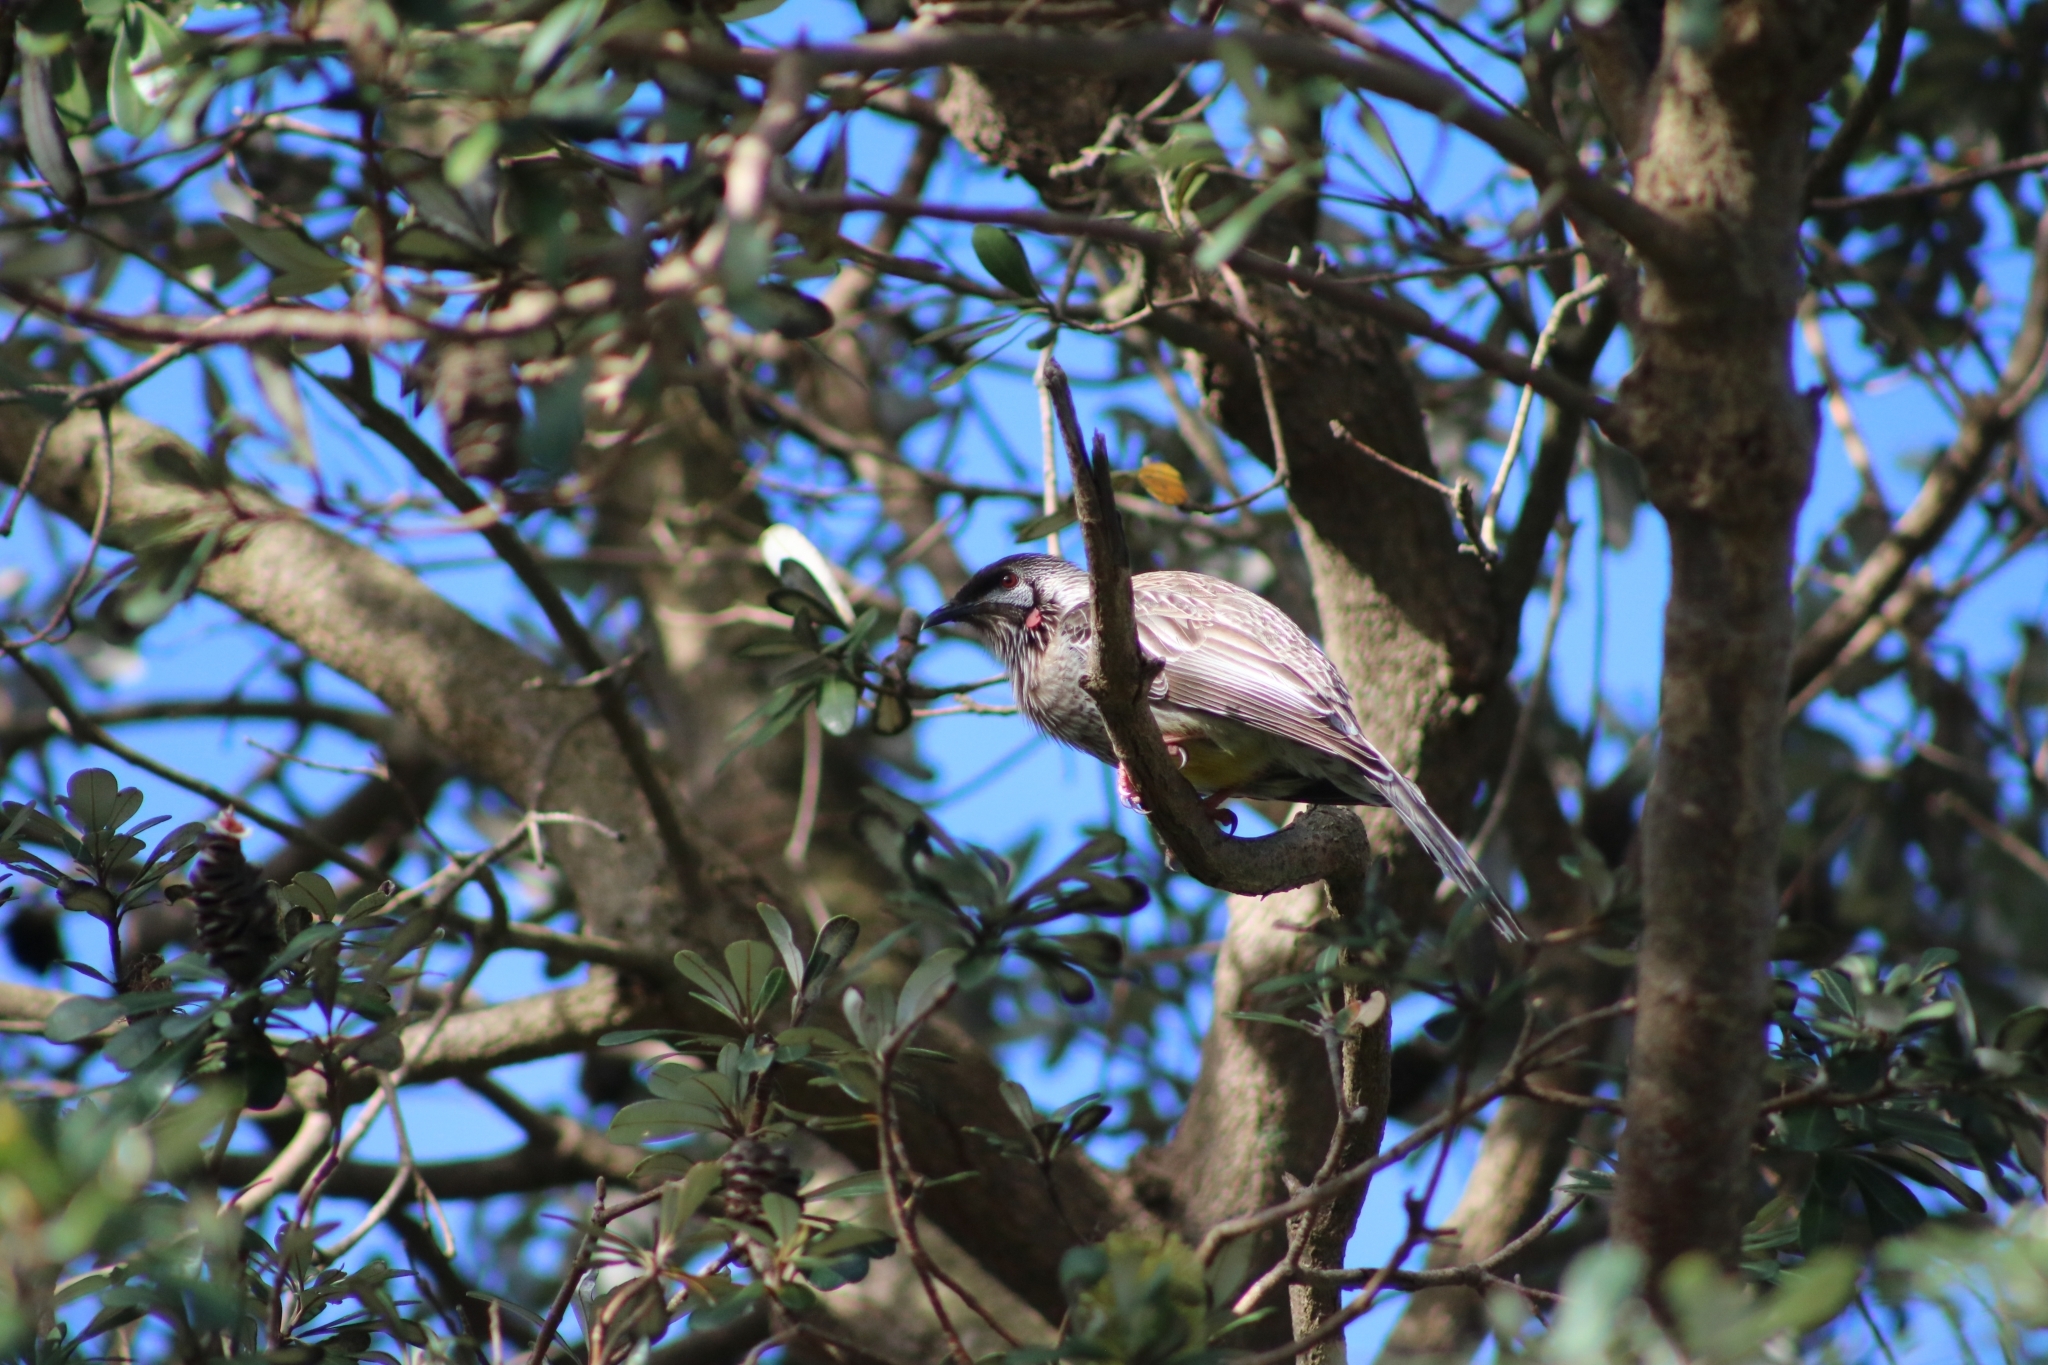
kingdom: Animalia
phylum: Chordata
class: Aves
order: Passeriformes
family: Meliphagidae
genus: Anthochaera
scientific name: Anthochaera carunculata
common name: Red wattlebird
